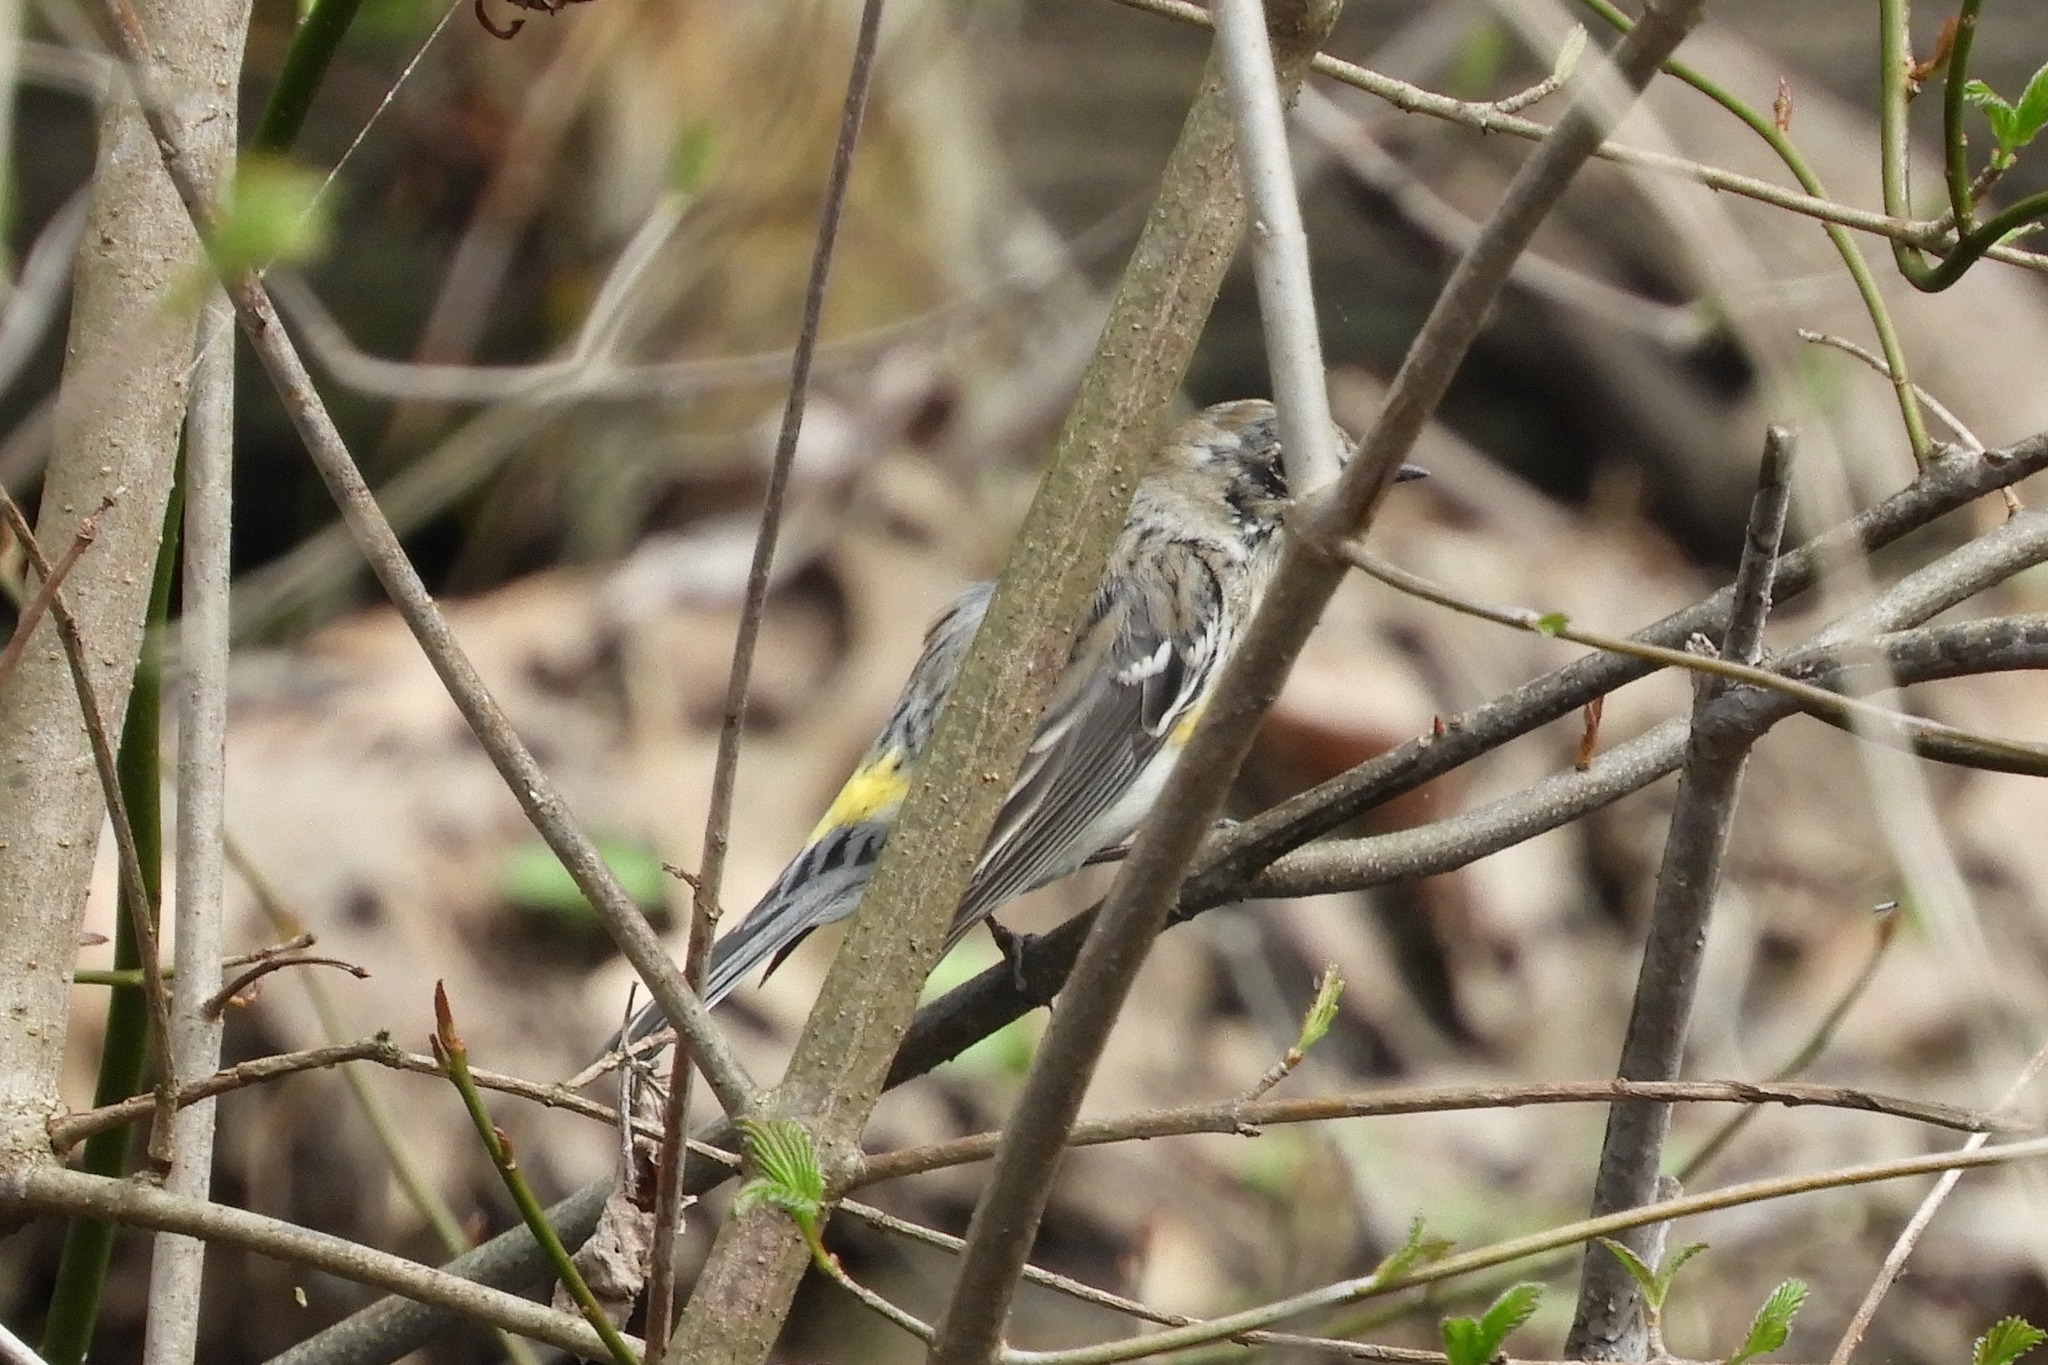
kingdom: Animalia
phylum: Chordata
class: Aves
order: Passeriformes
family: Parulidae
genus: Setophaga
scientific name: Setophaga coronata
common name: Myrtle warbler
